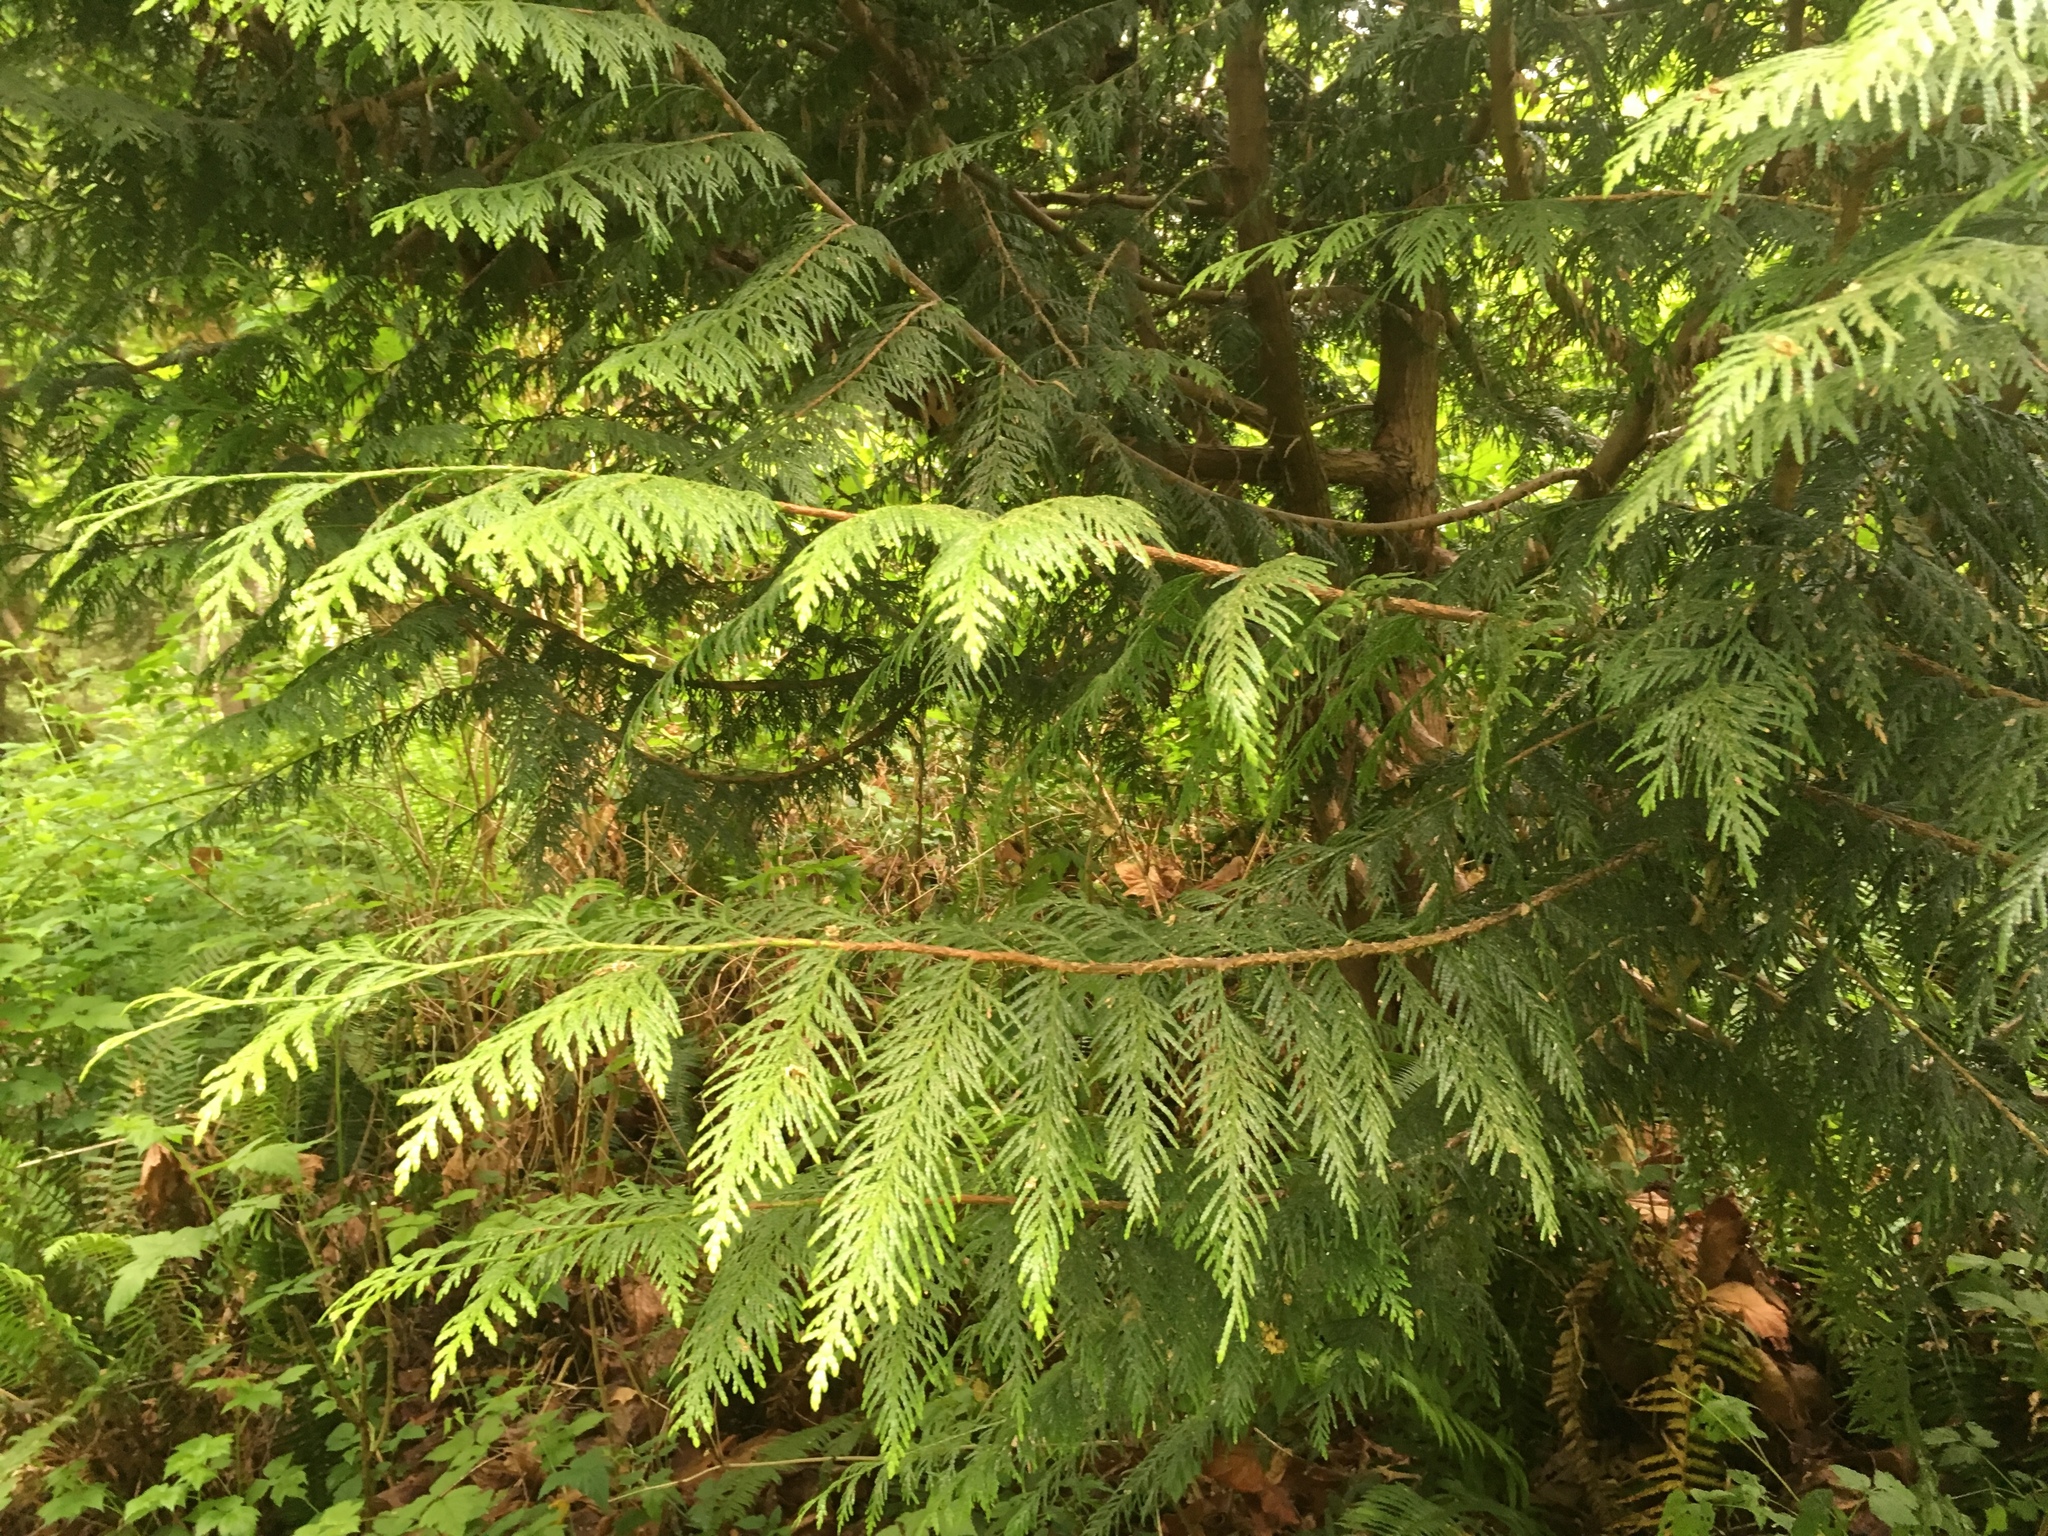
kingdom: Plantae
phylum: Tracheophyta
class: Pinopsida
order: Pinales
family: Cupressaceae
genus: Thuja
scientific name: Thuja plicata
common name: Western red-cedar
